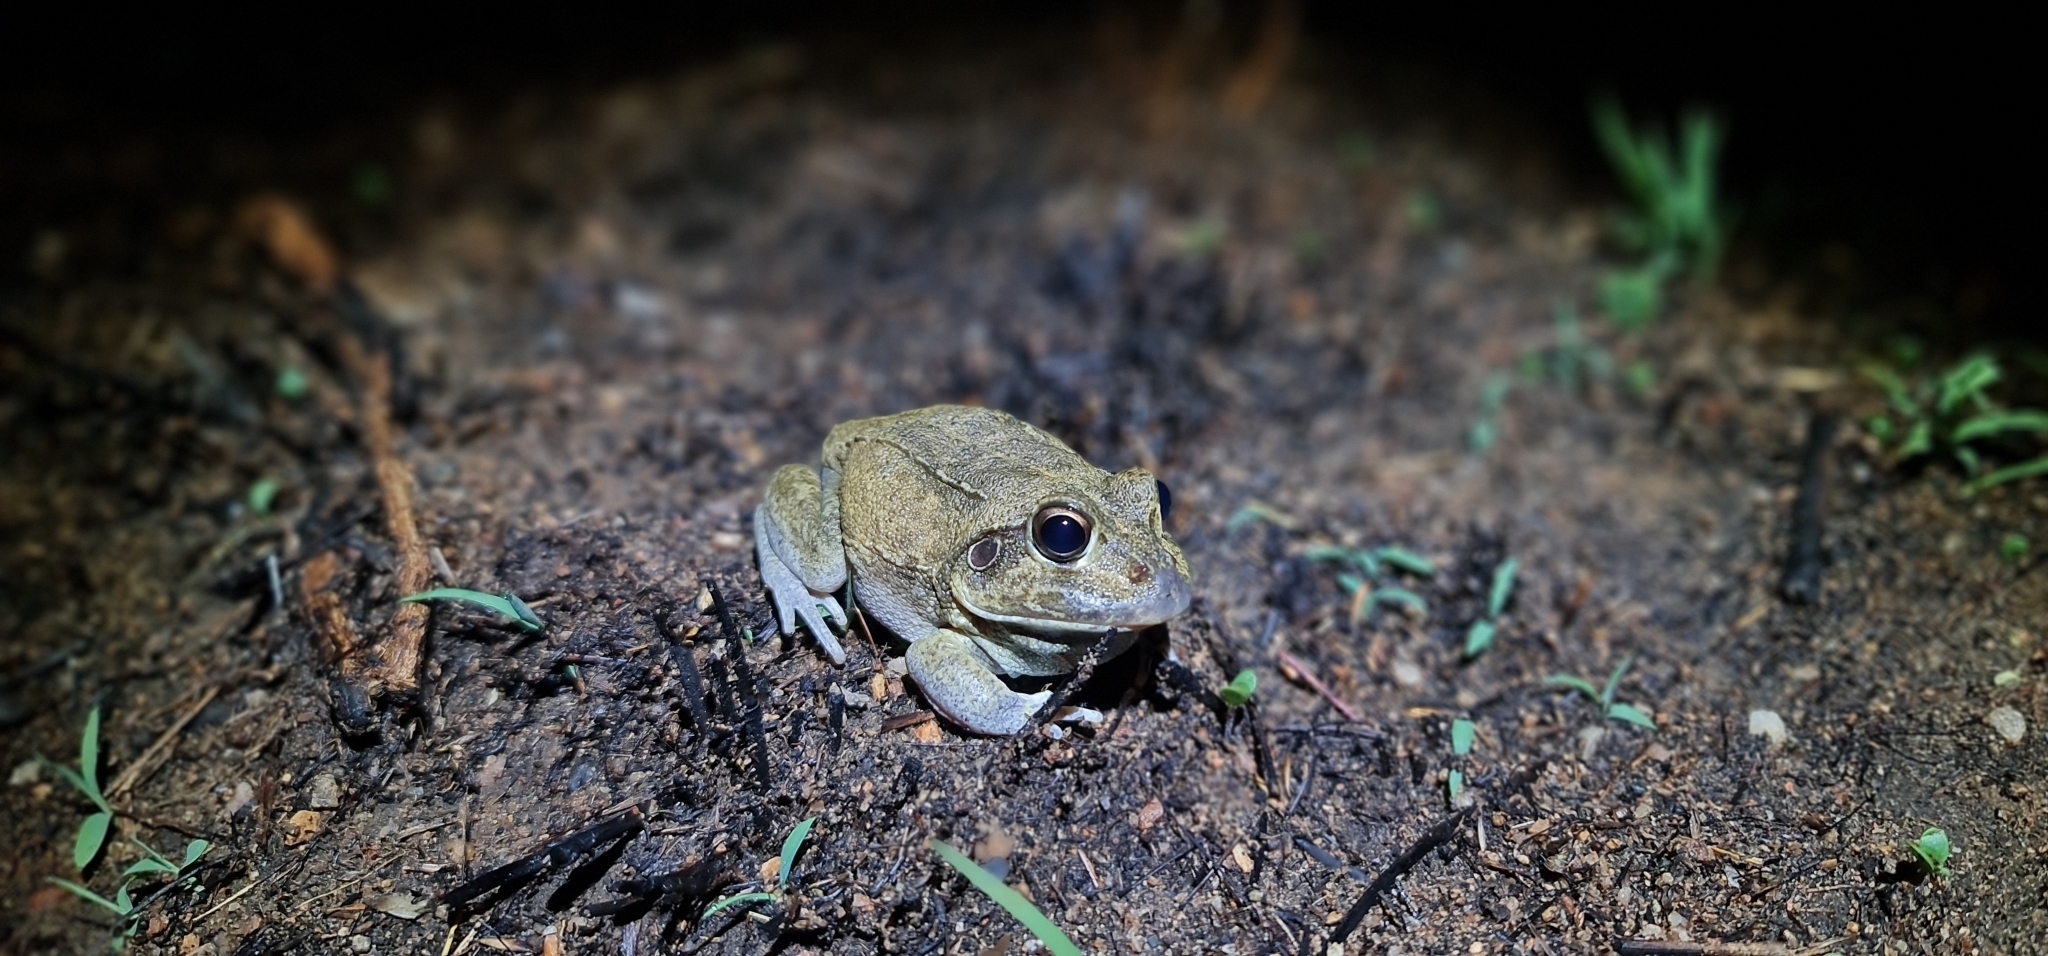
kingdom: Animalia
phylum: Chordata
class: Amphibia
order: Anura
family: Pelodryadidae
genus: Ranoidea
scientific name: Ranoidea novaehollandiae
